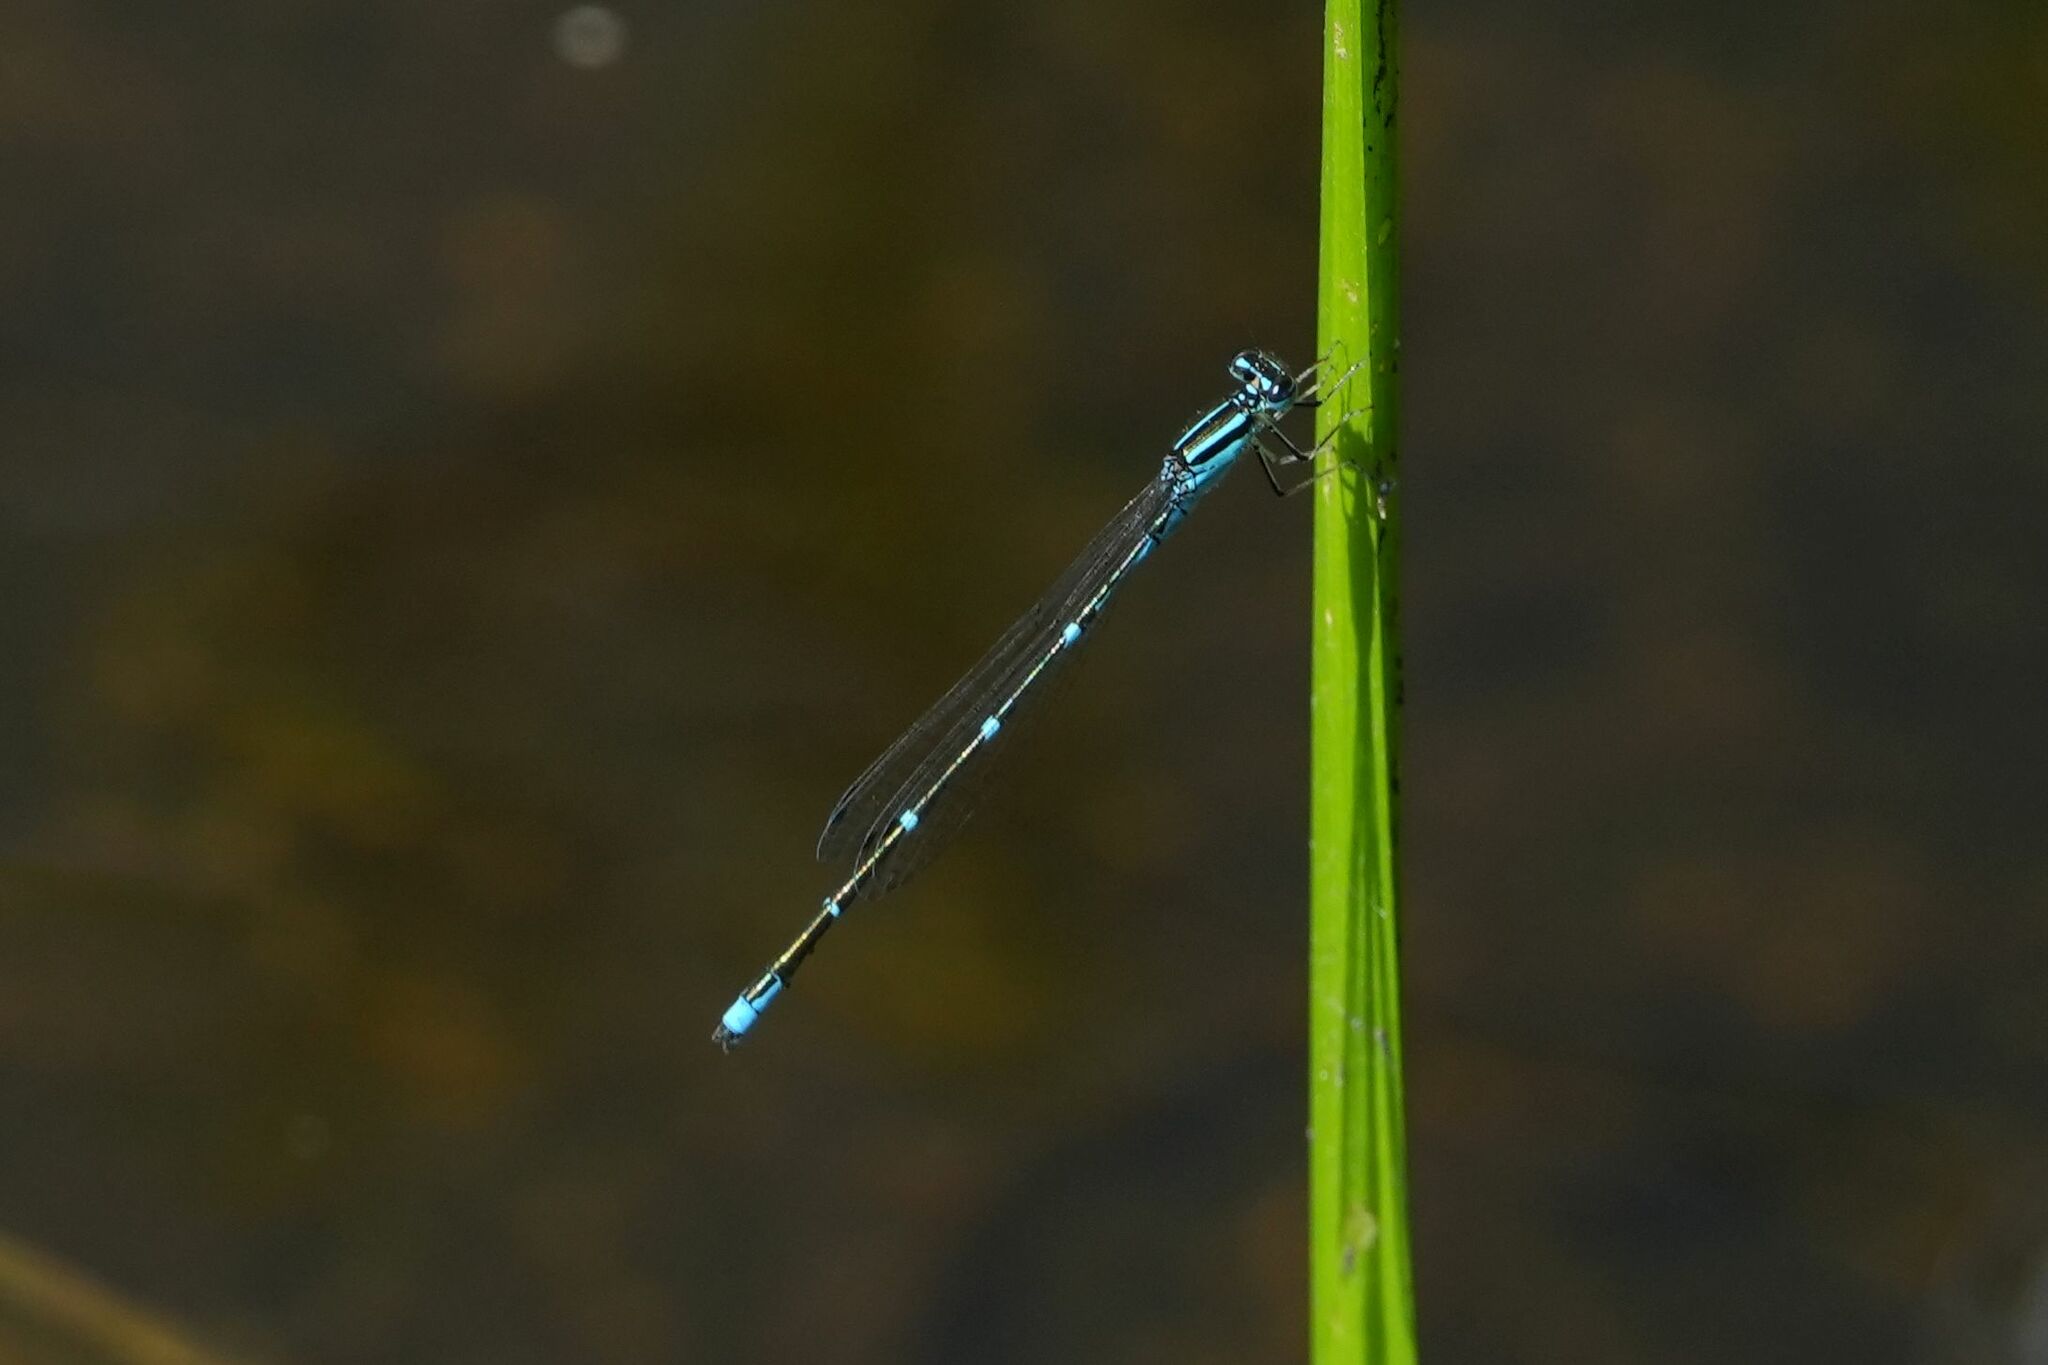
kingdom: Animalia
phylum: Arthropoda
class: Insecta
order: Odonata
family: Coenagrionidae
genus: Enallagma
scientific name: Enallagma exsulans
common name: Stream bluet
